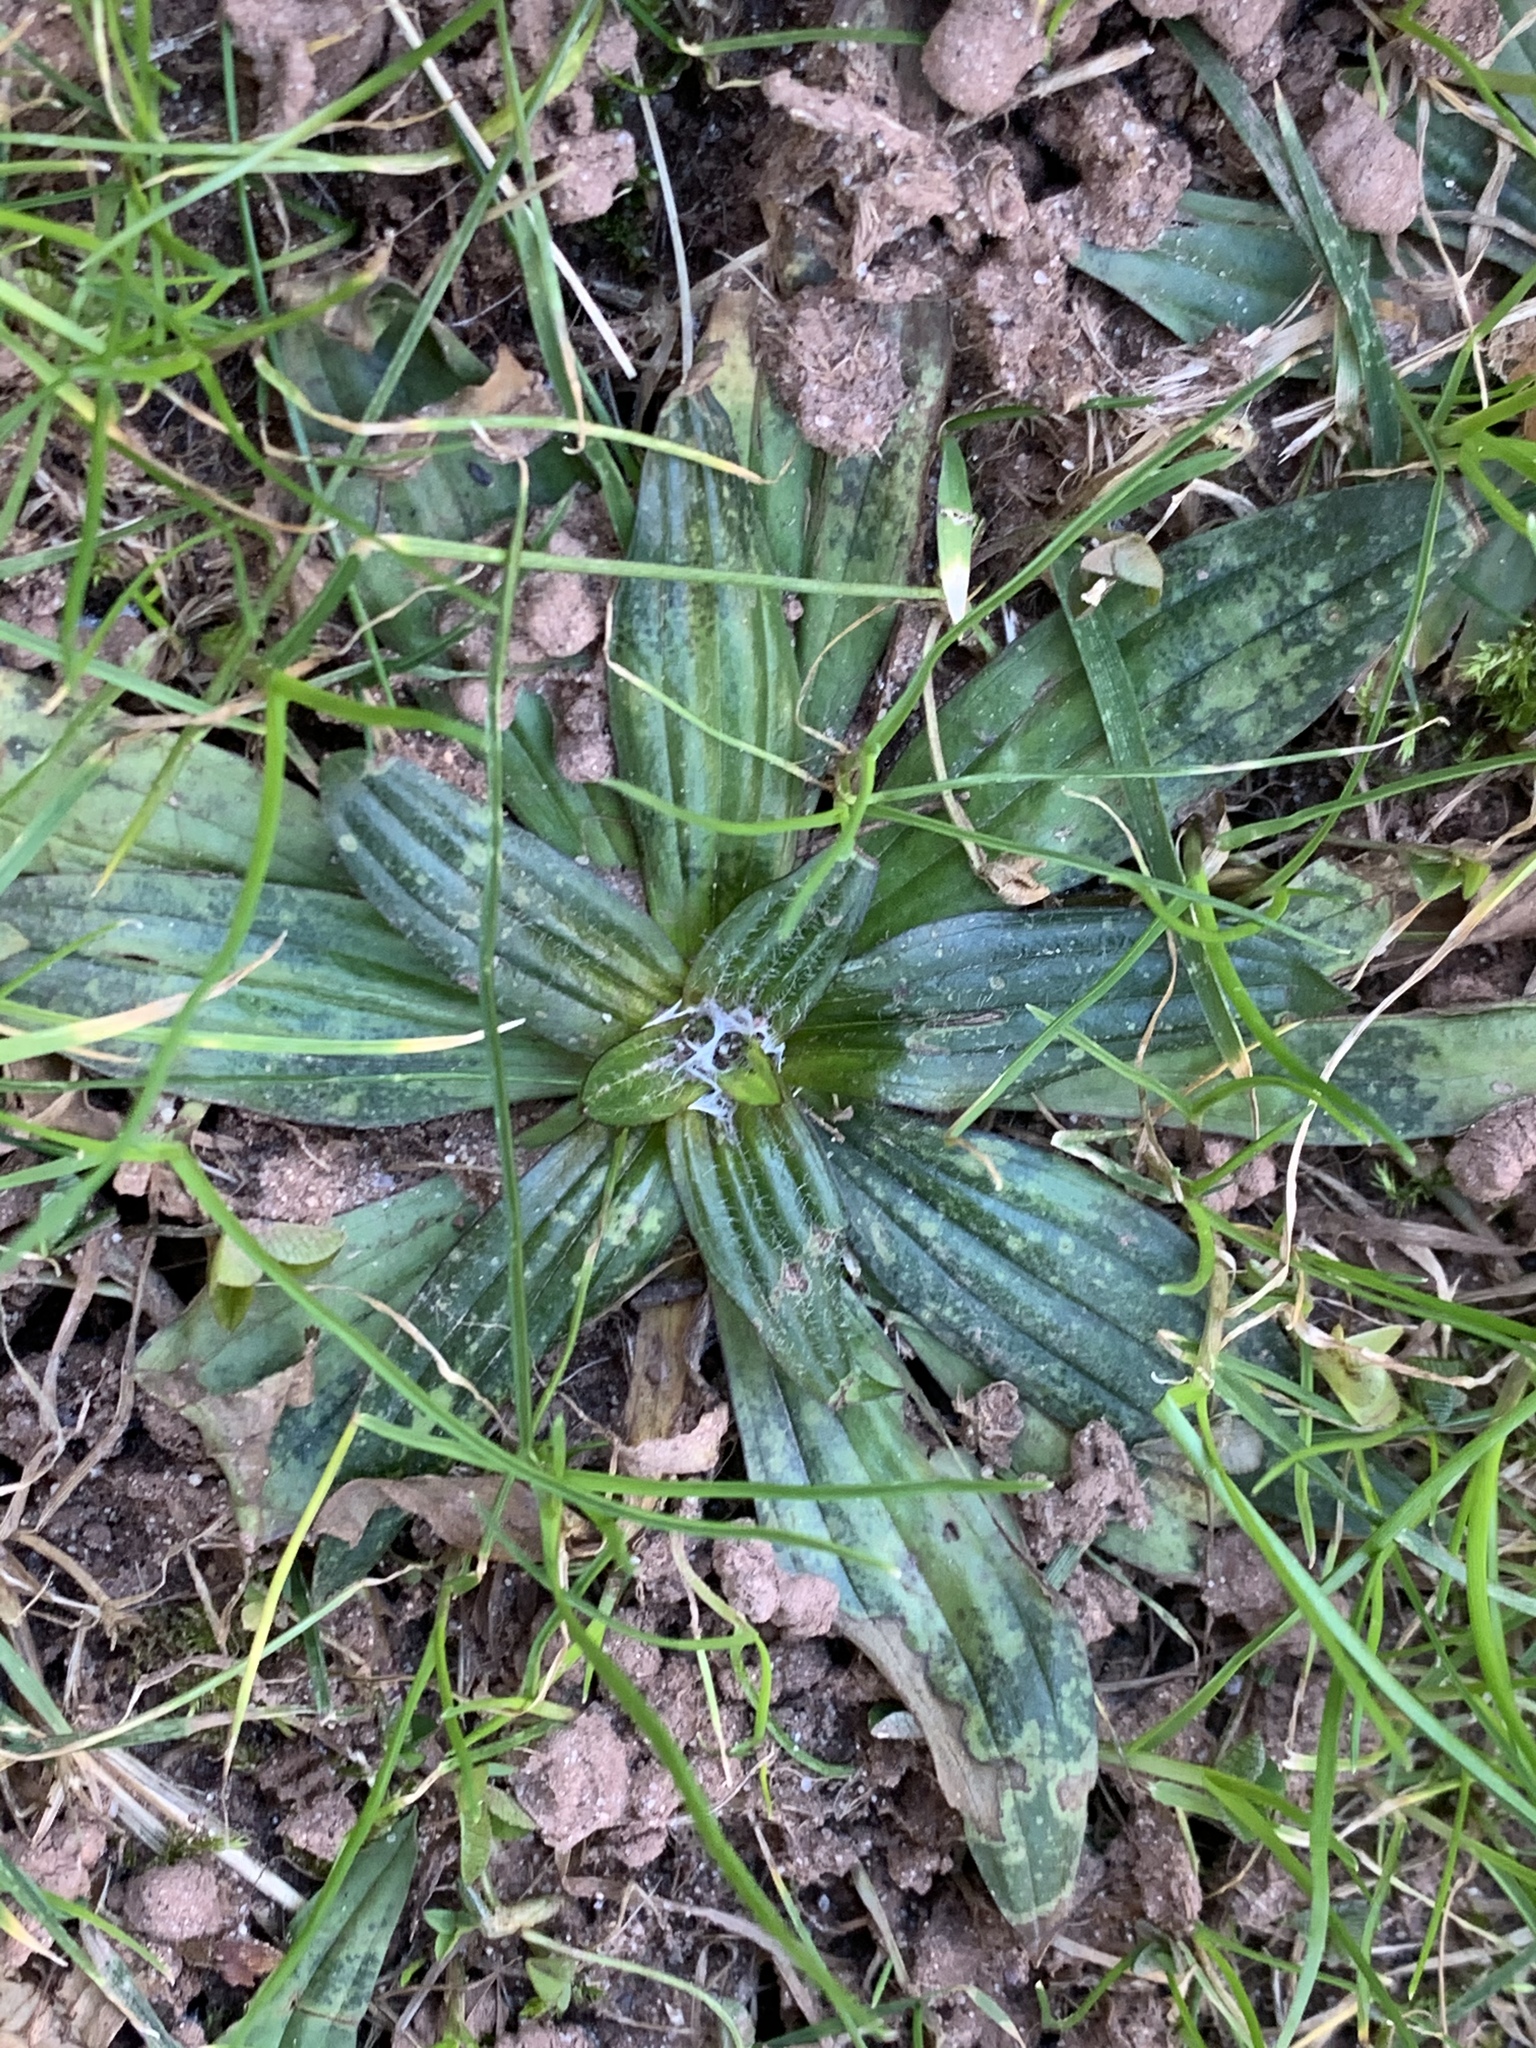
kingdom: Plantae
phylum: Tracheophyta
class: Magnoliopsida
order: Lamiales
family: Plantaginaceae
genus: Plantago
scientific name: Plantago lanceolata
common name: Ribwort plantain
